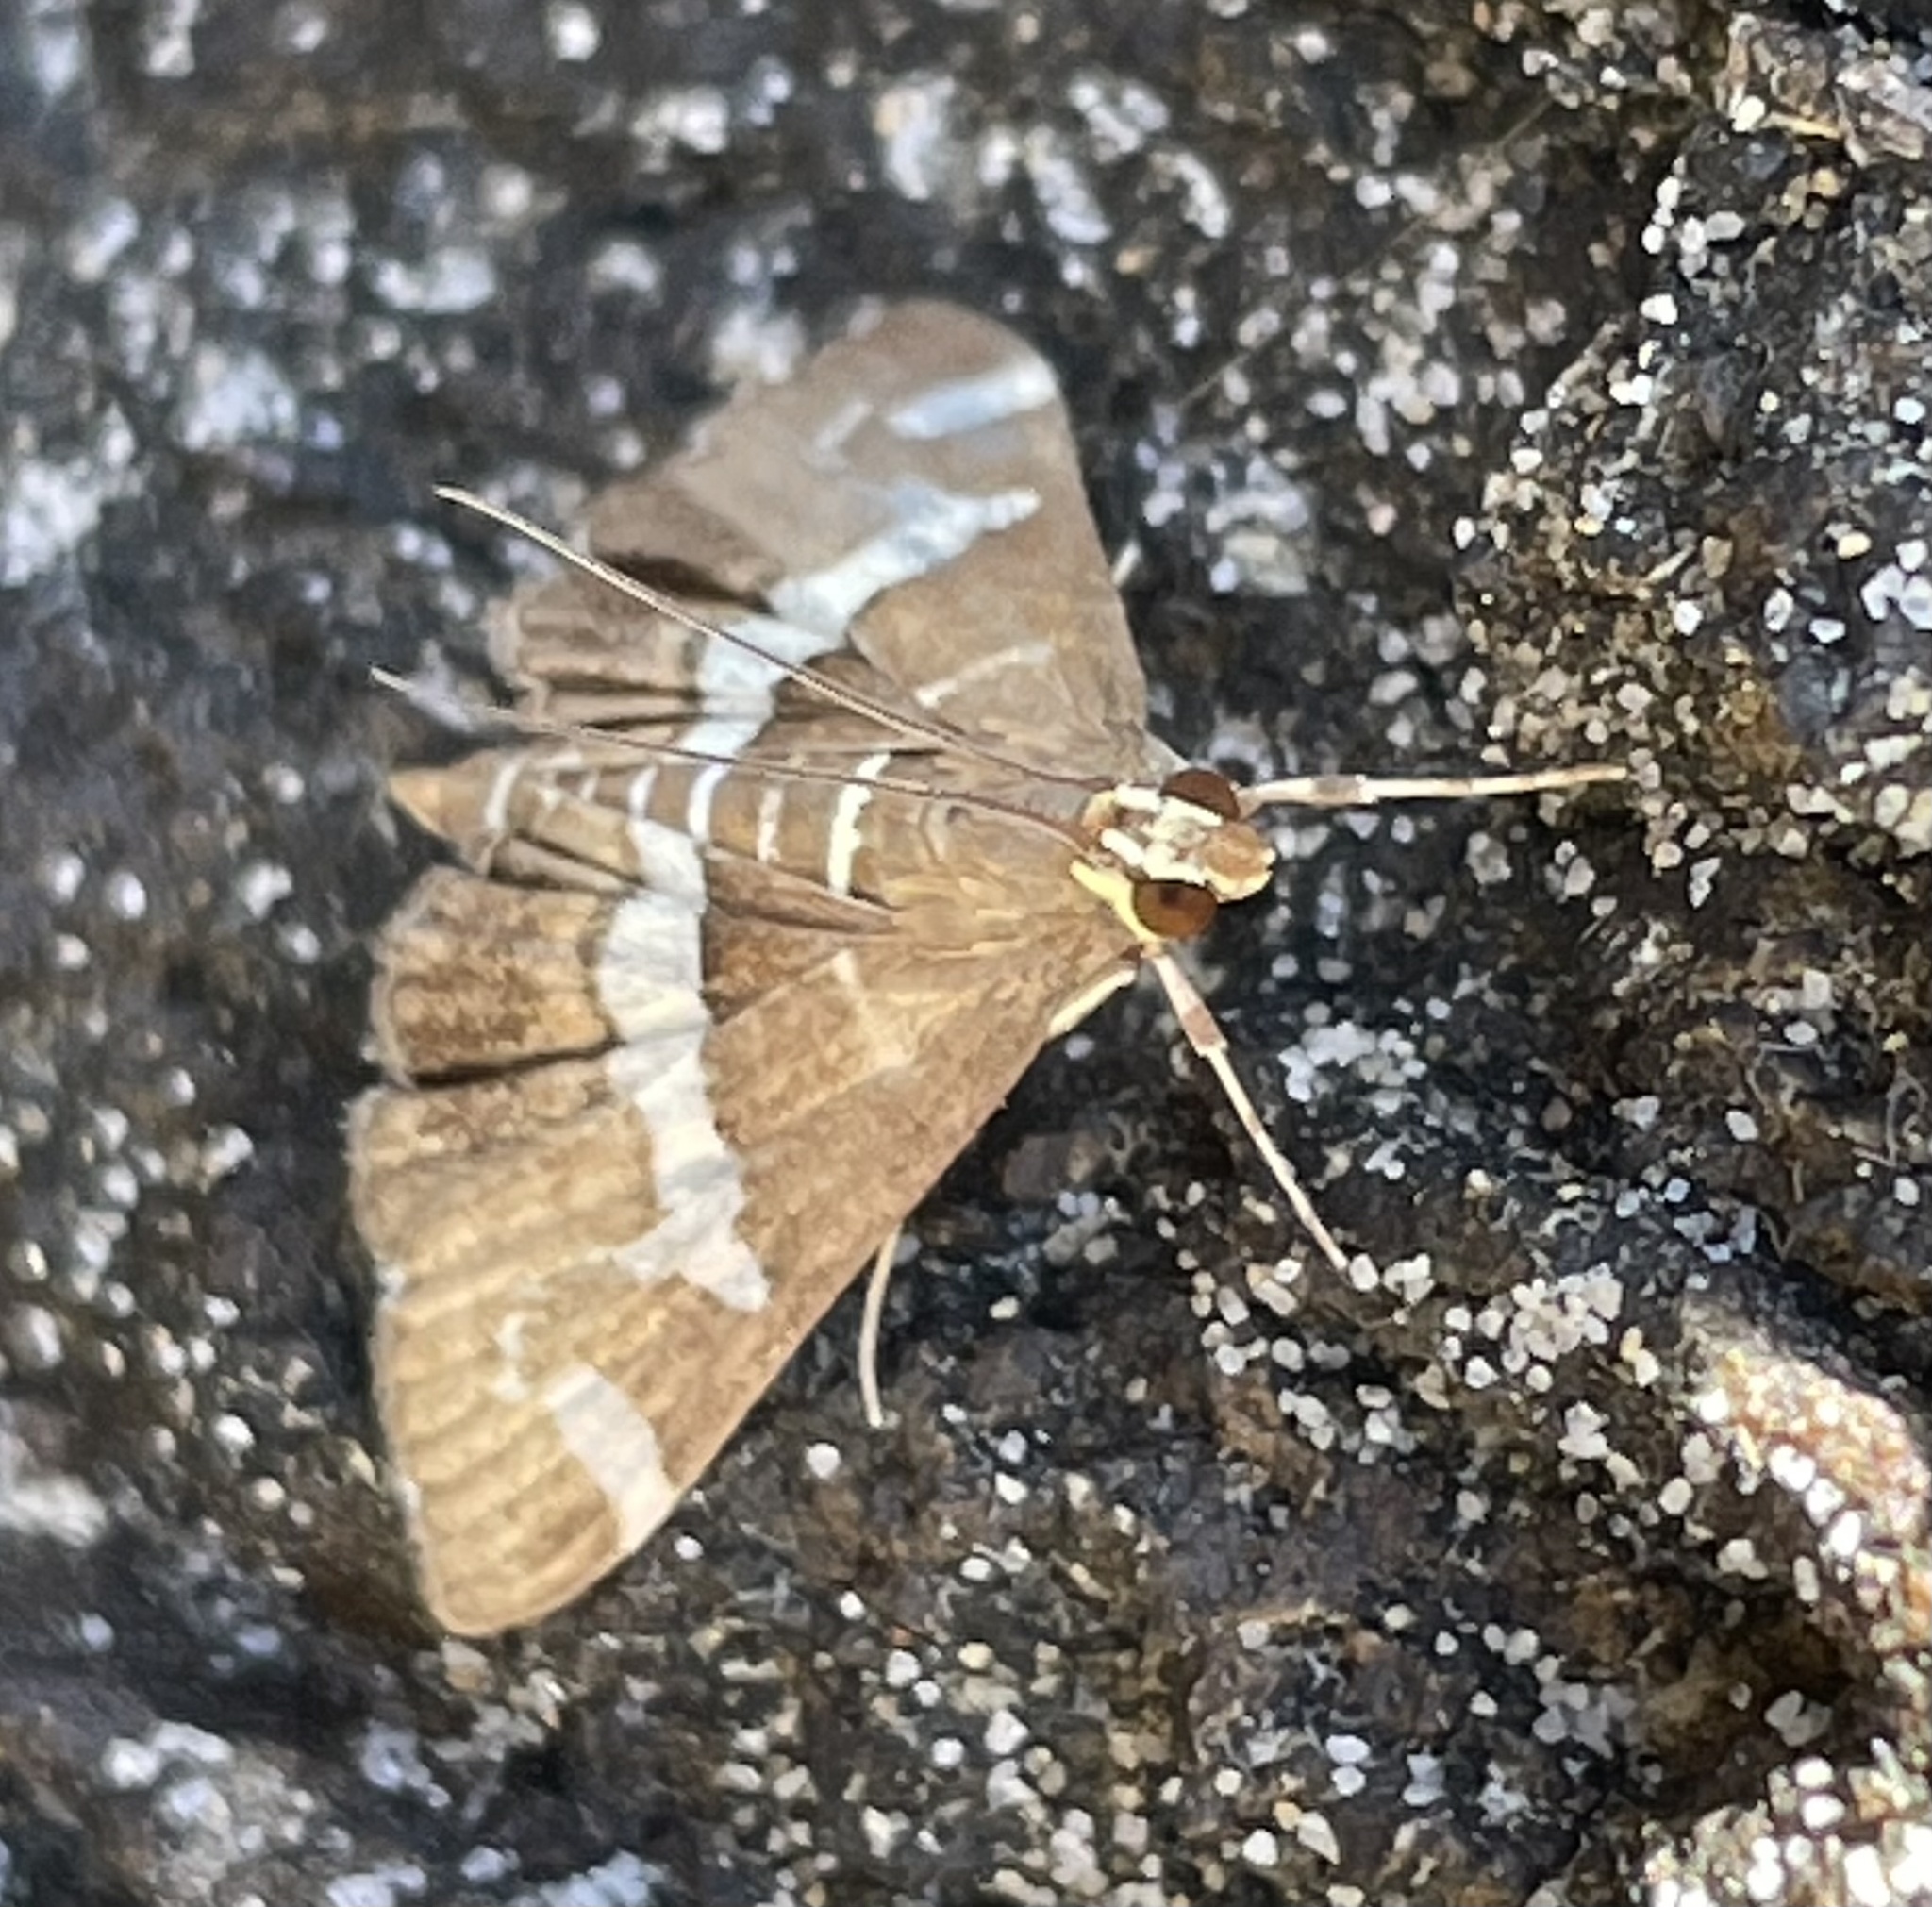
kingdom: Animalia
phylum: Arthropoda
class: Insecta
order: Lepidoptera
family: Crambidae
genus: Spoladea
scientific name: Spoladea recurvalis
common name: Beet webworm moth
